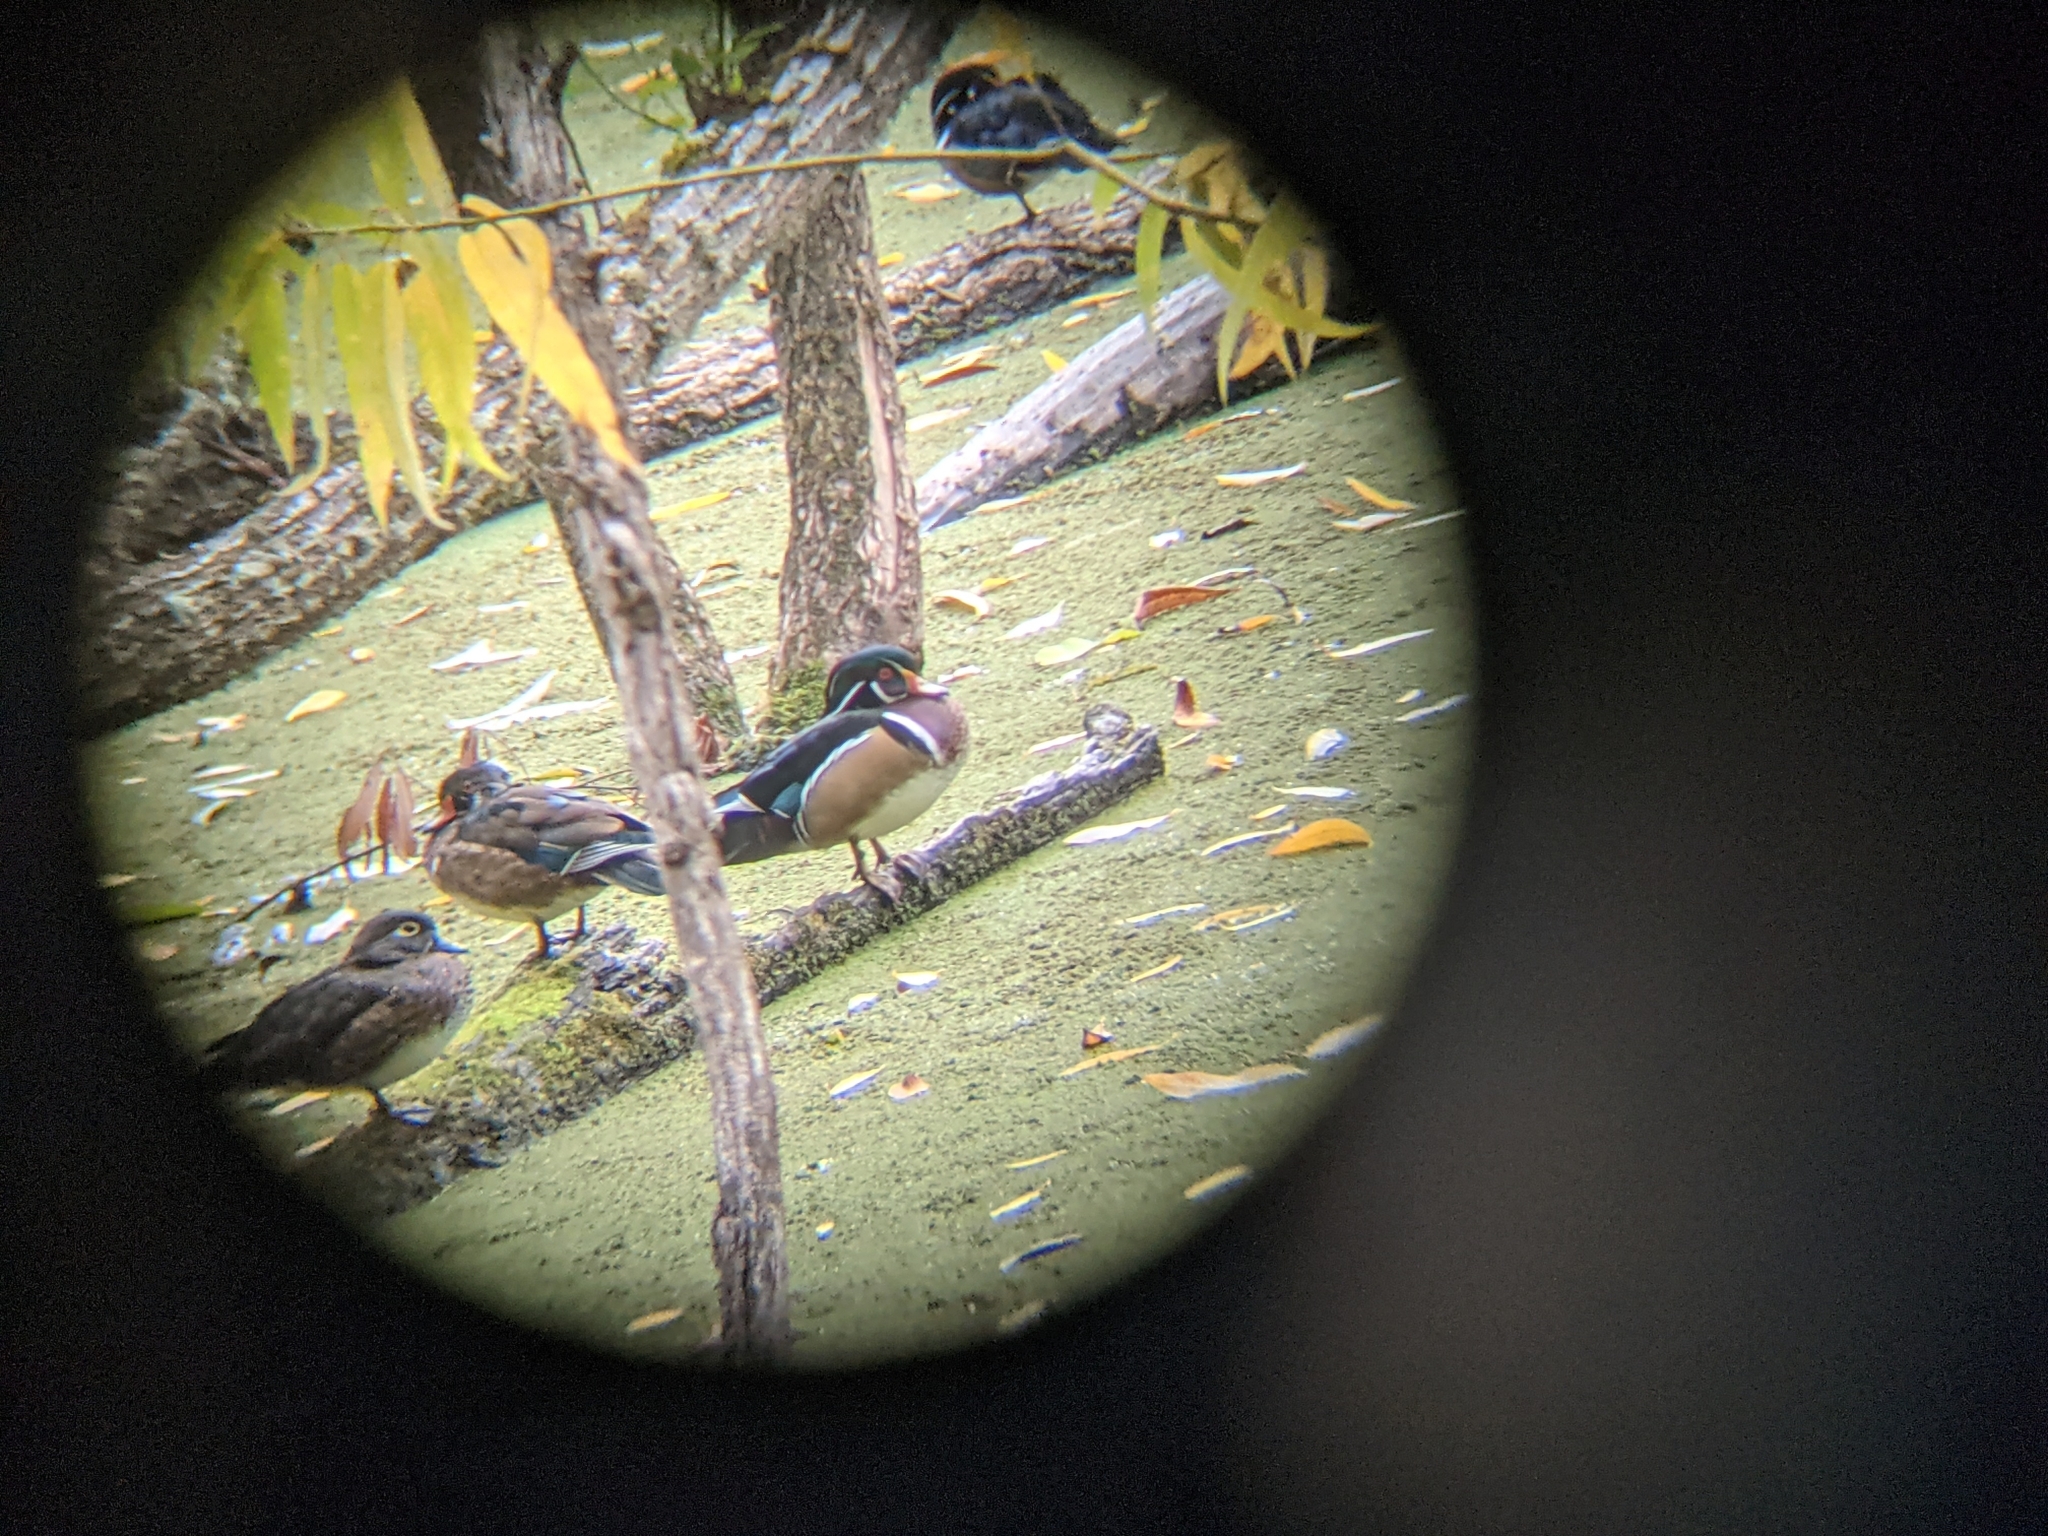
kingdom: Animalia
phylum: Chordata
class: Aves
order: Anseriformes
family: Anatidae
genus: Aix
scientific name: Aix sponsa
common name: Wood duck
